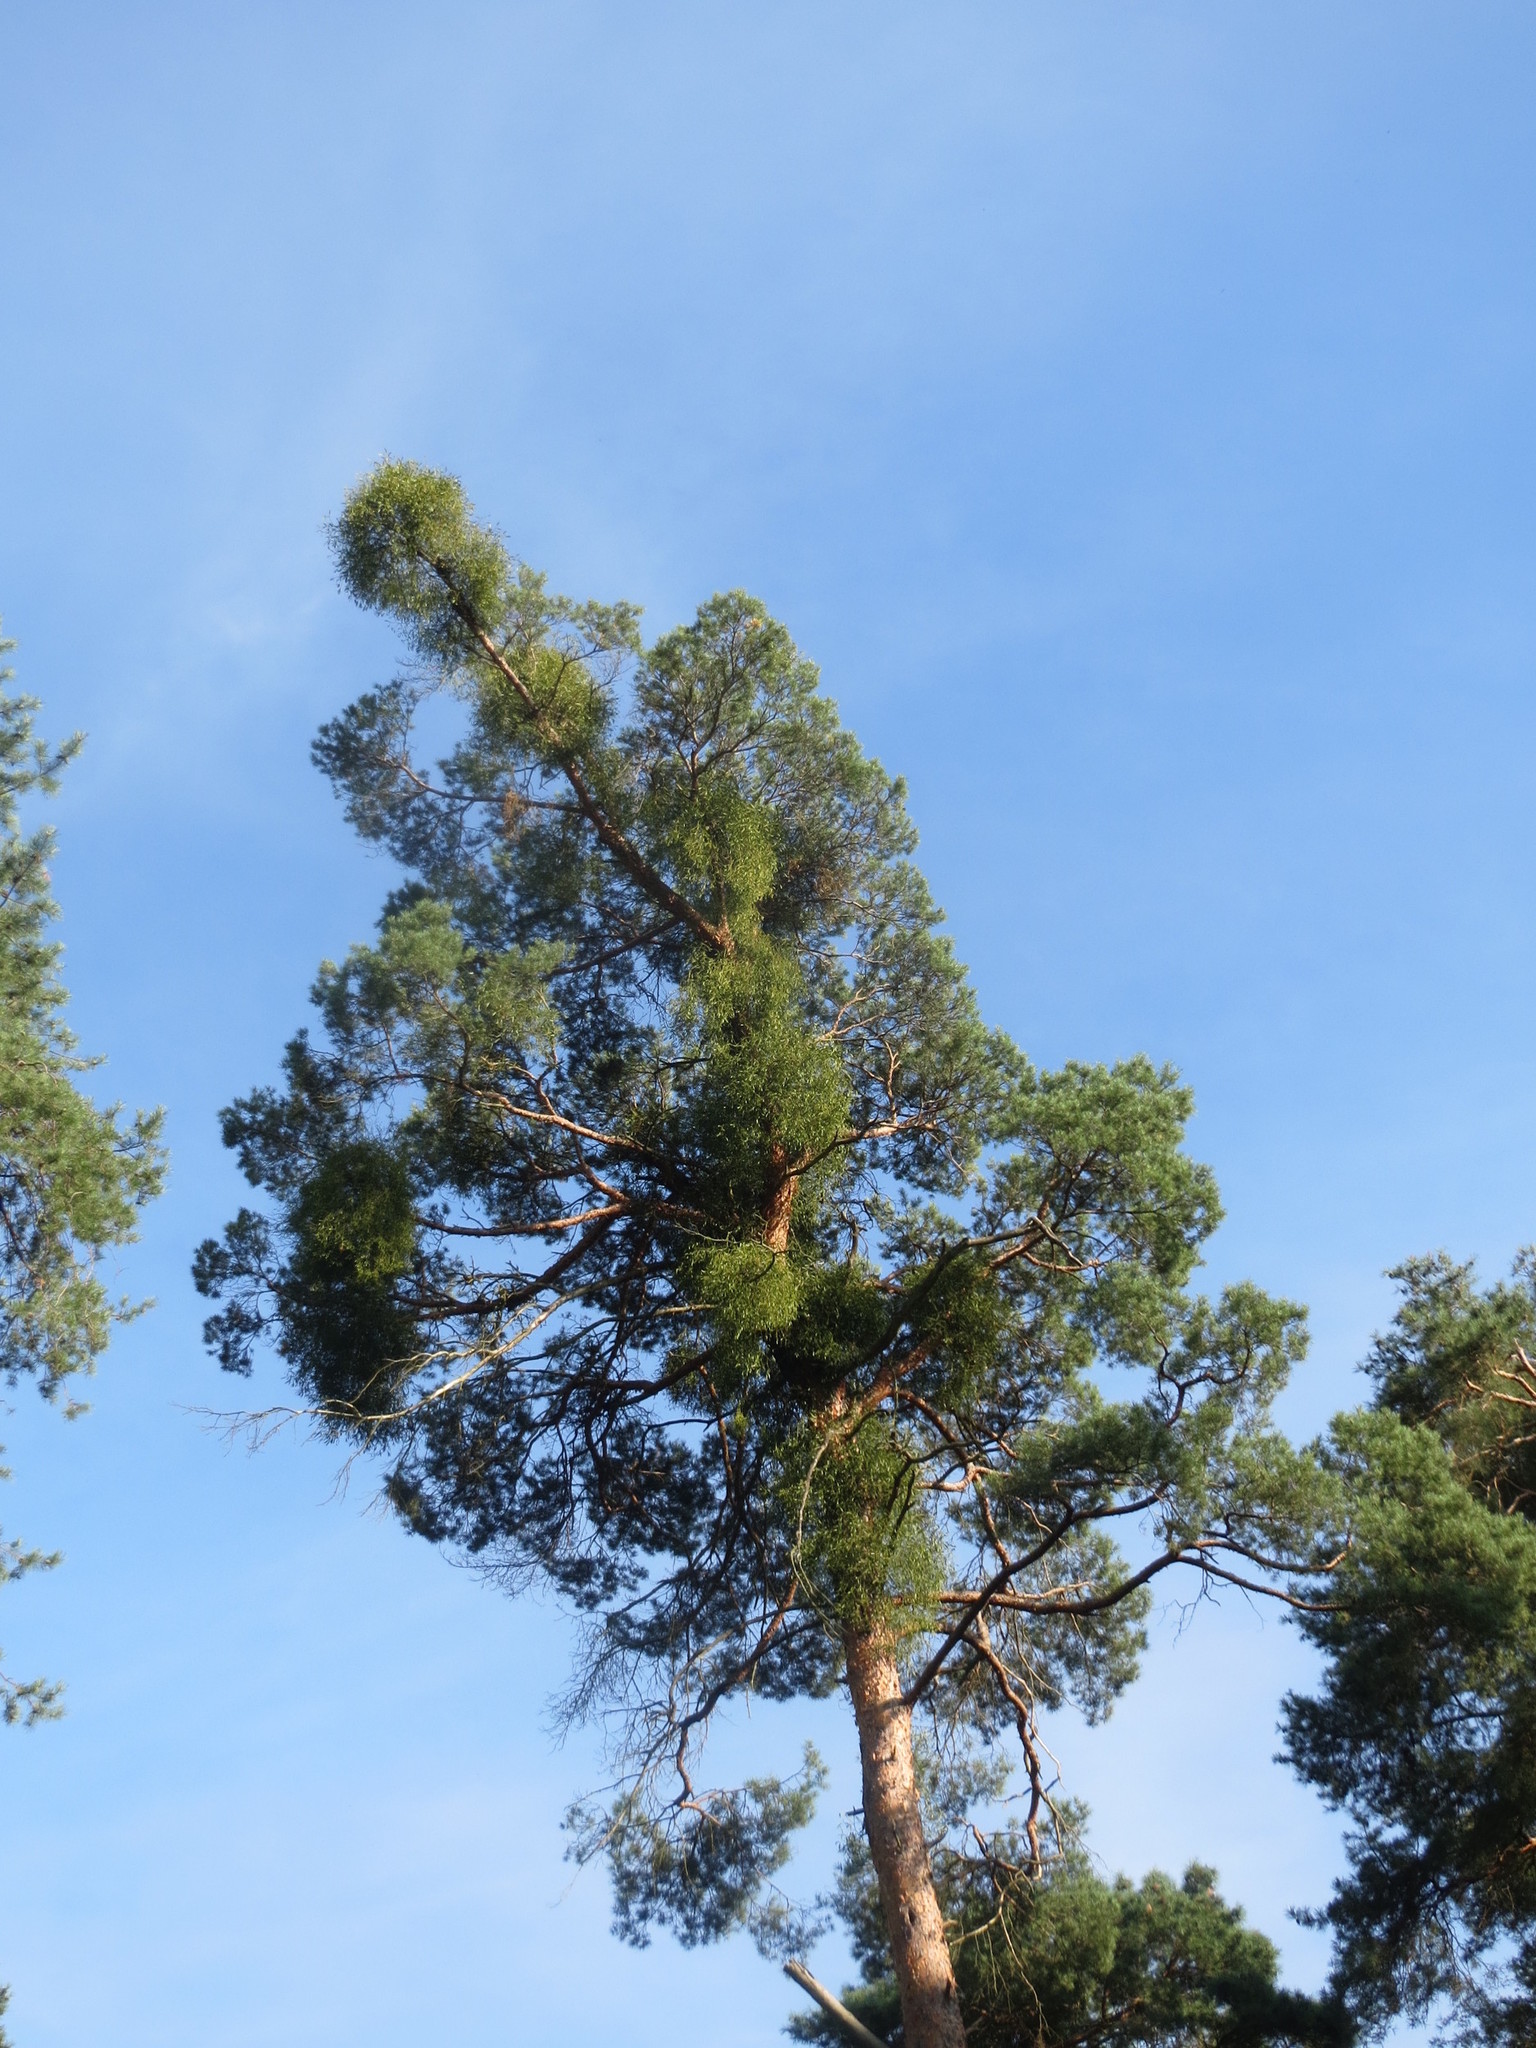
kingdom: Plantae
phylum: Tracheophyta
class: Pinopsida
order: Pinales
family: Pinaceae
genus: Pinus
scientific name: Pinus sylvestris
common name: Scots pine
